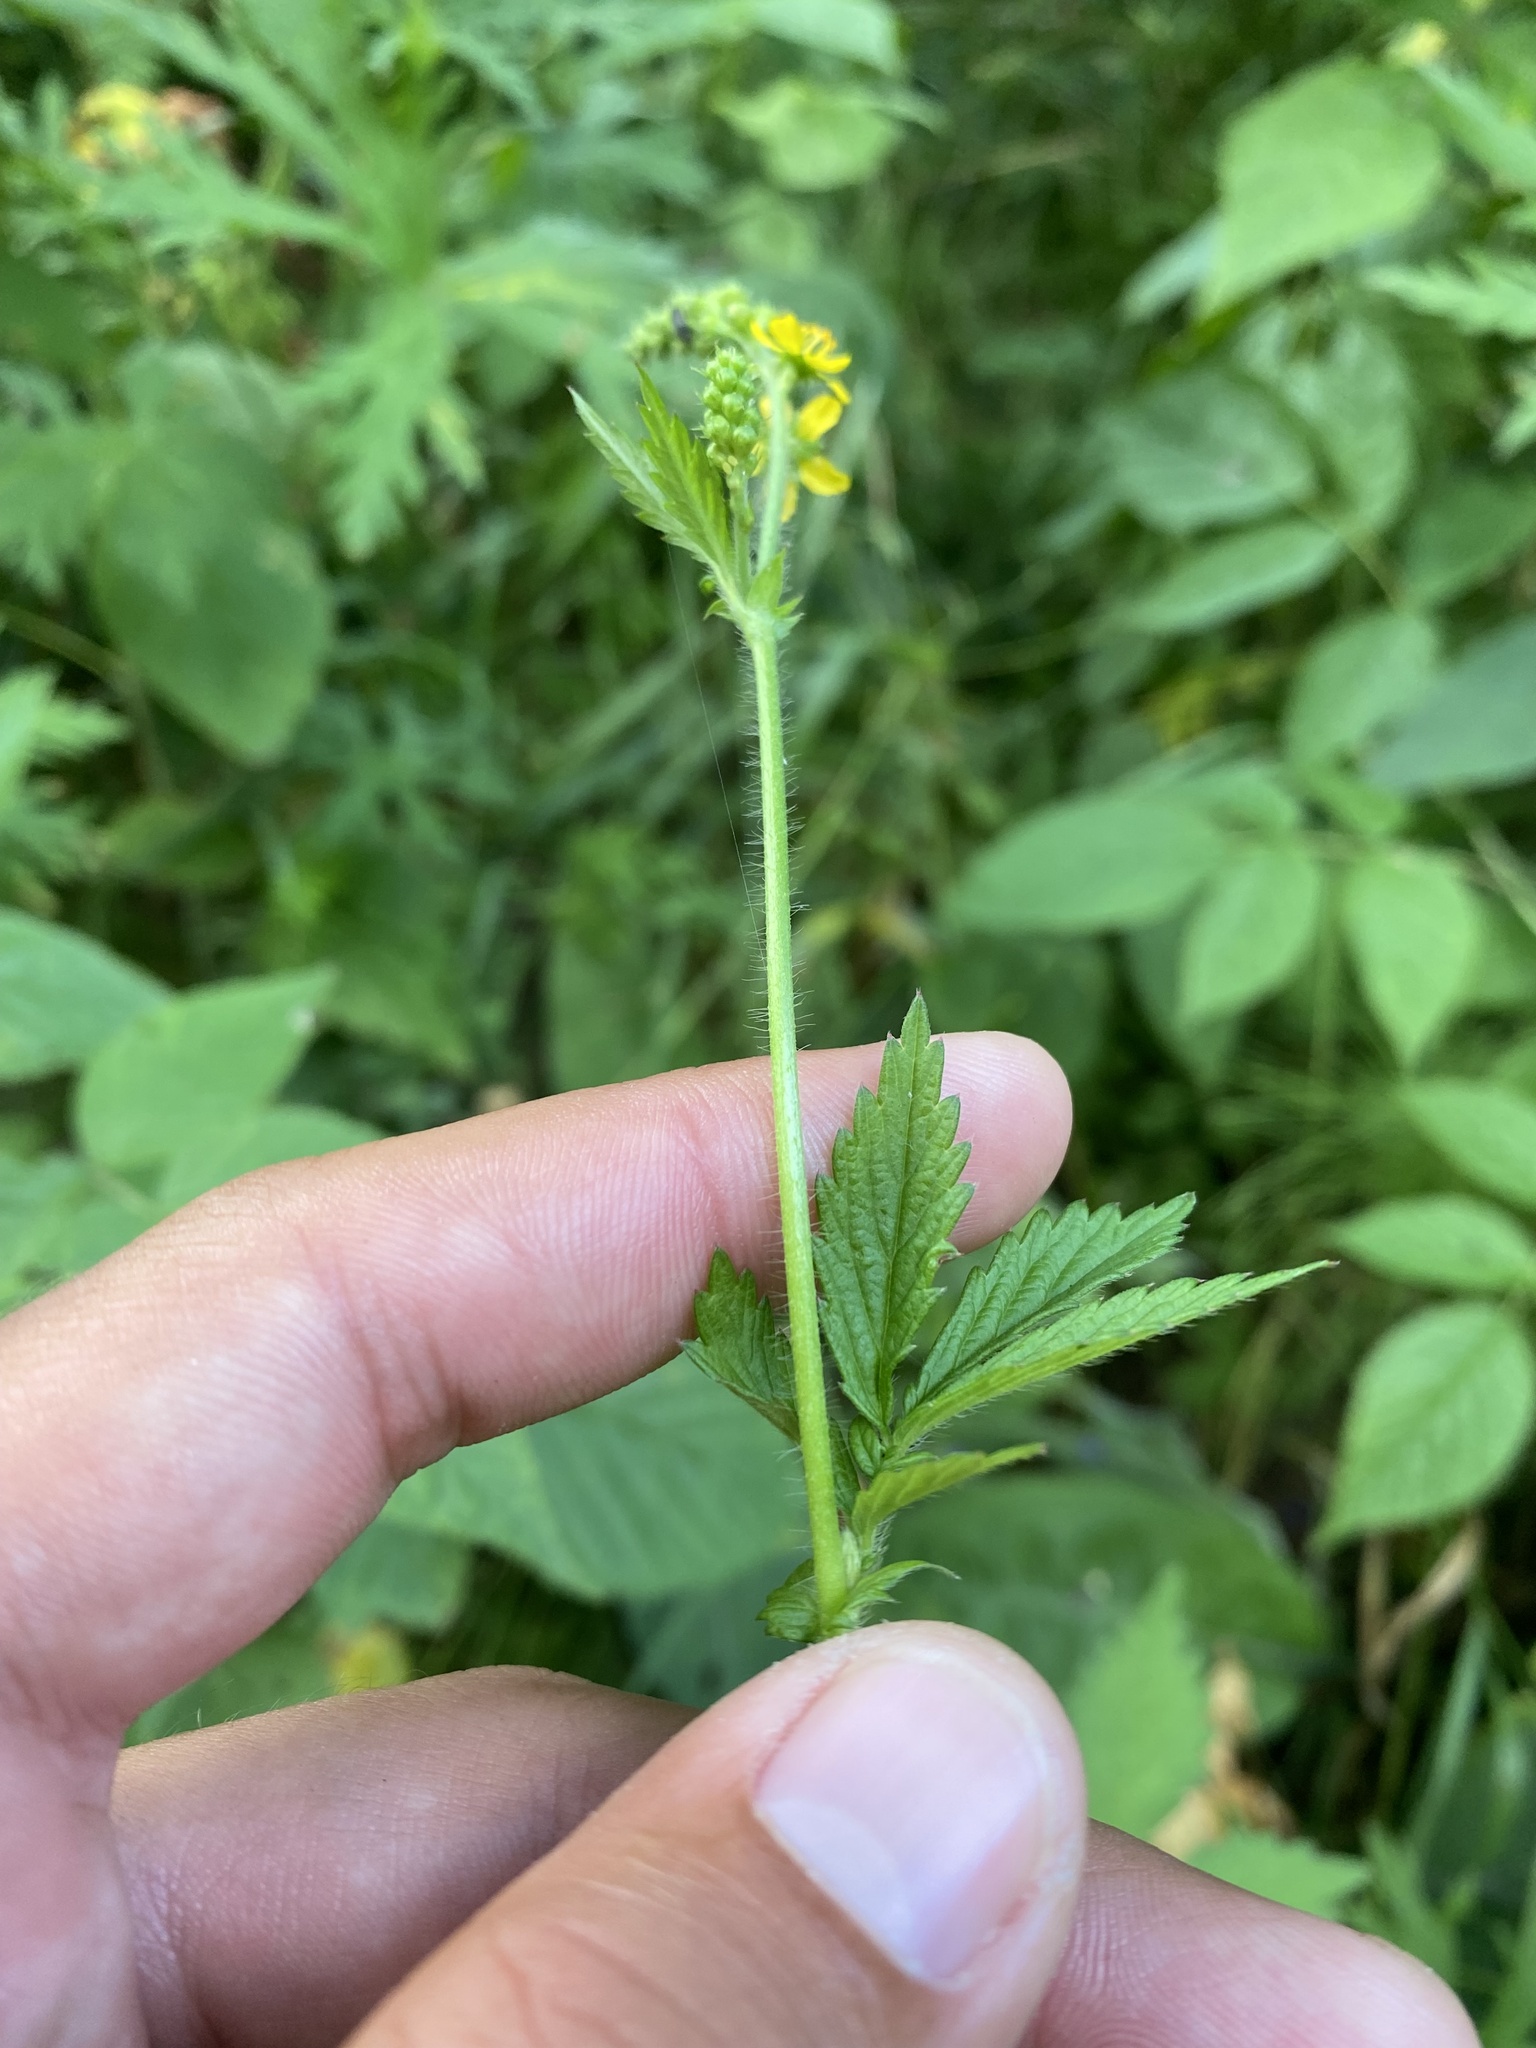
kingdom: Plantae
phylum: Tracheophyta
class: Magnoliopsida
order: Rosales
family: Rosaceae
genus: Agrimonia
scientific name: Agrimonia pilosa
